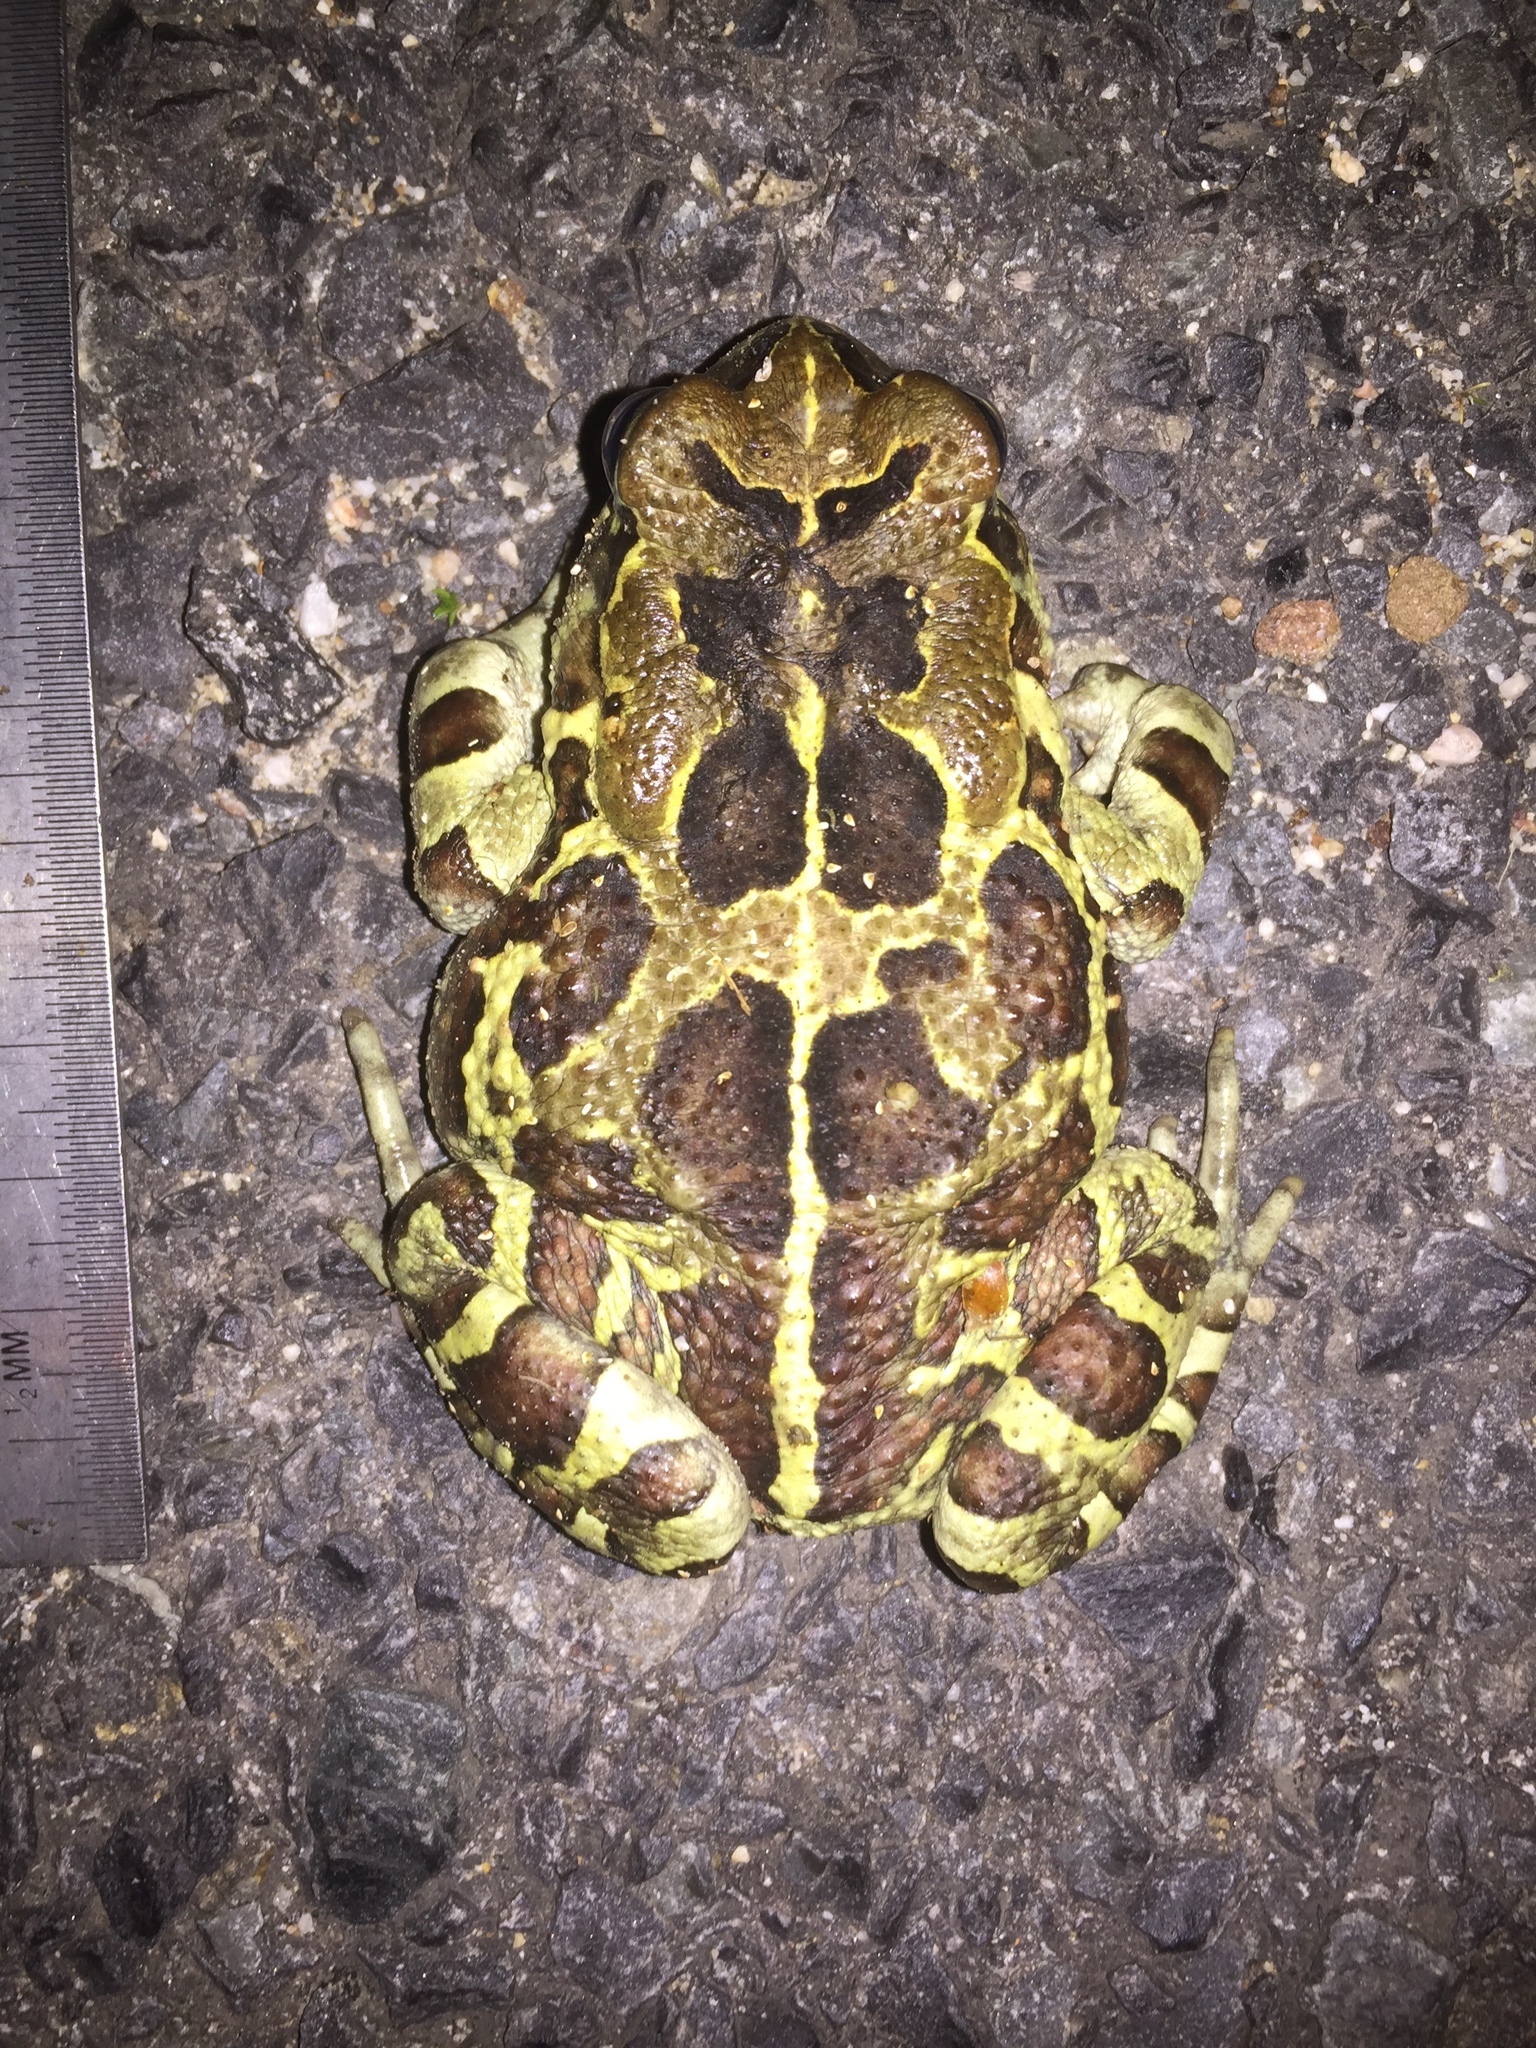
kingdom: Animalia
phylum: Chordata
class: Amphibia
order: Anura
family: Bufonidae
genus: Sclerophrys
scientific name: Sclerophrys pantherina
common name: Panther toad
